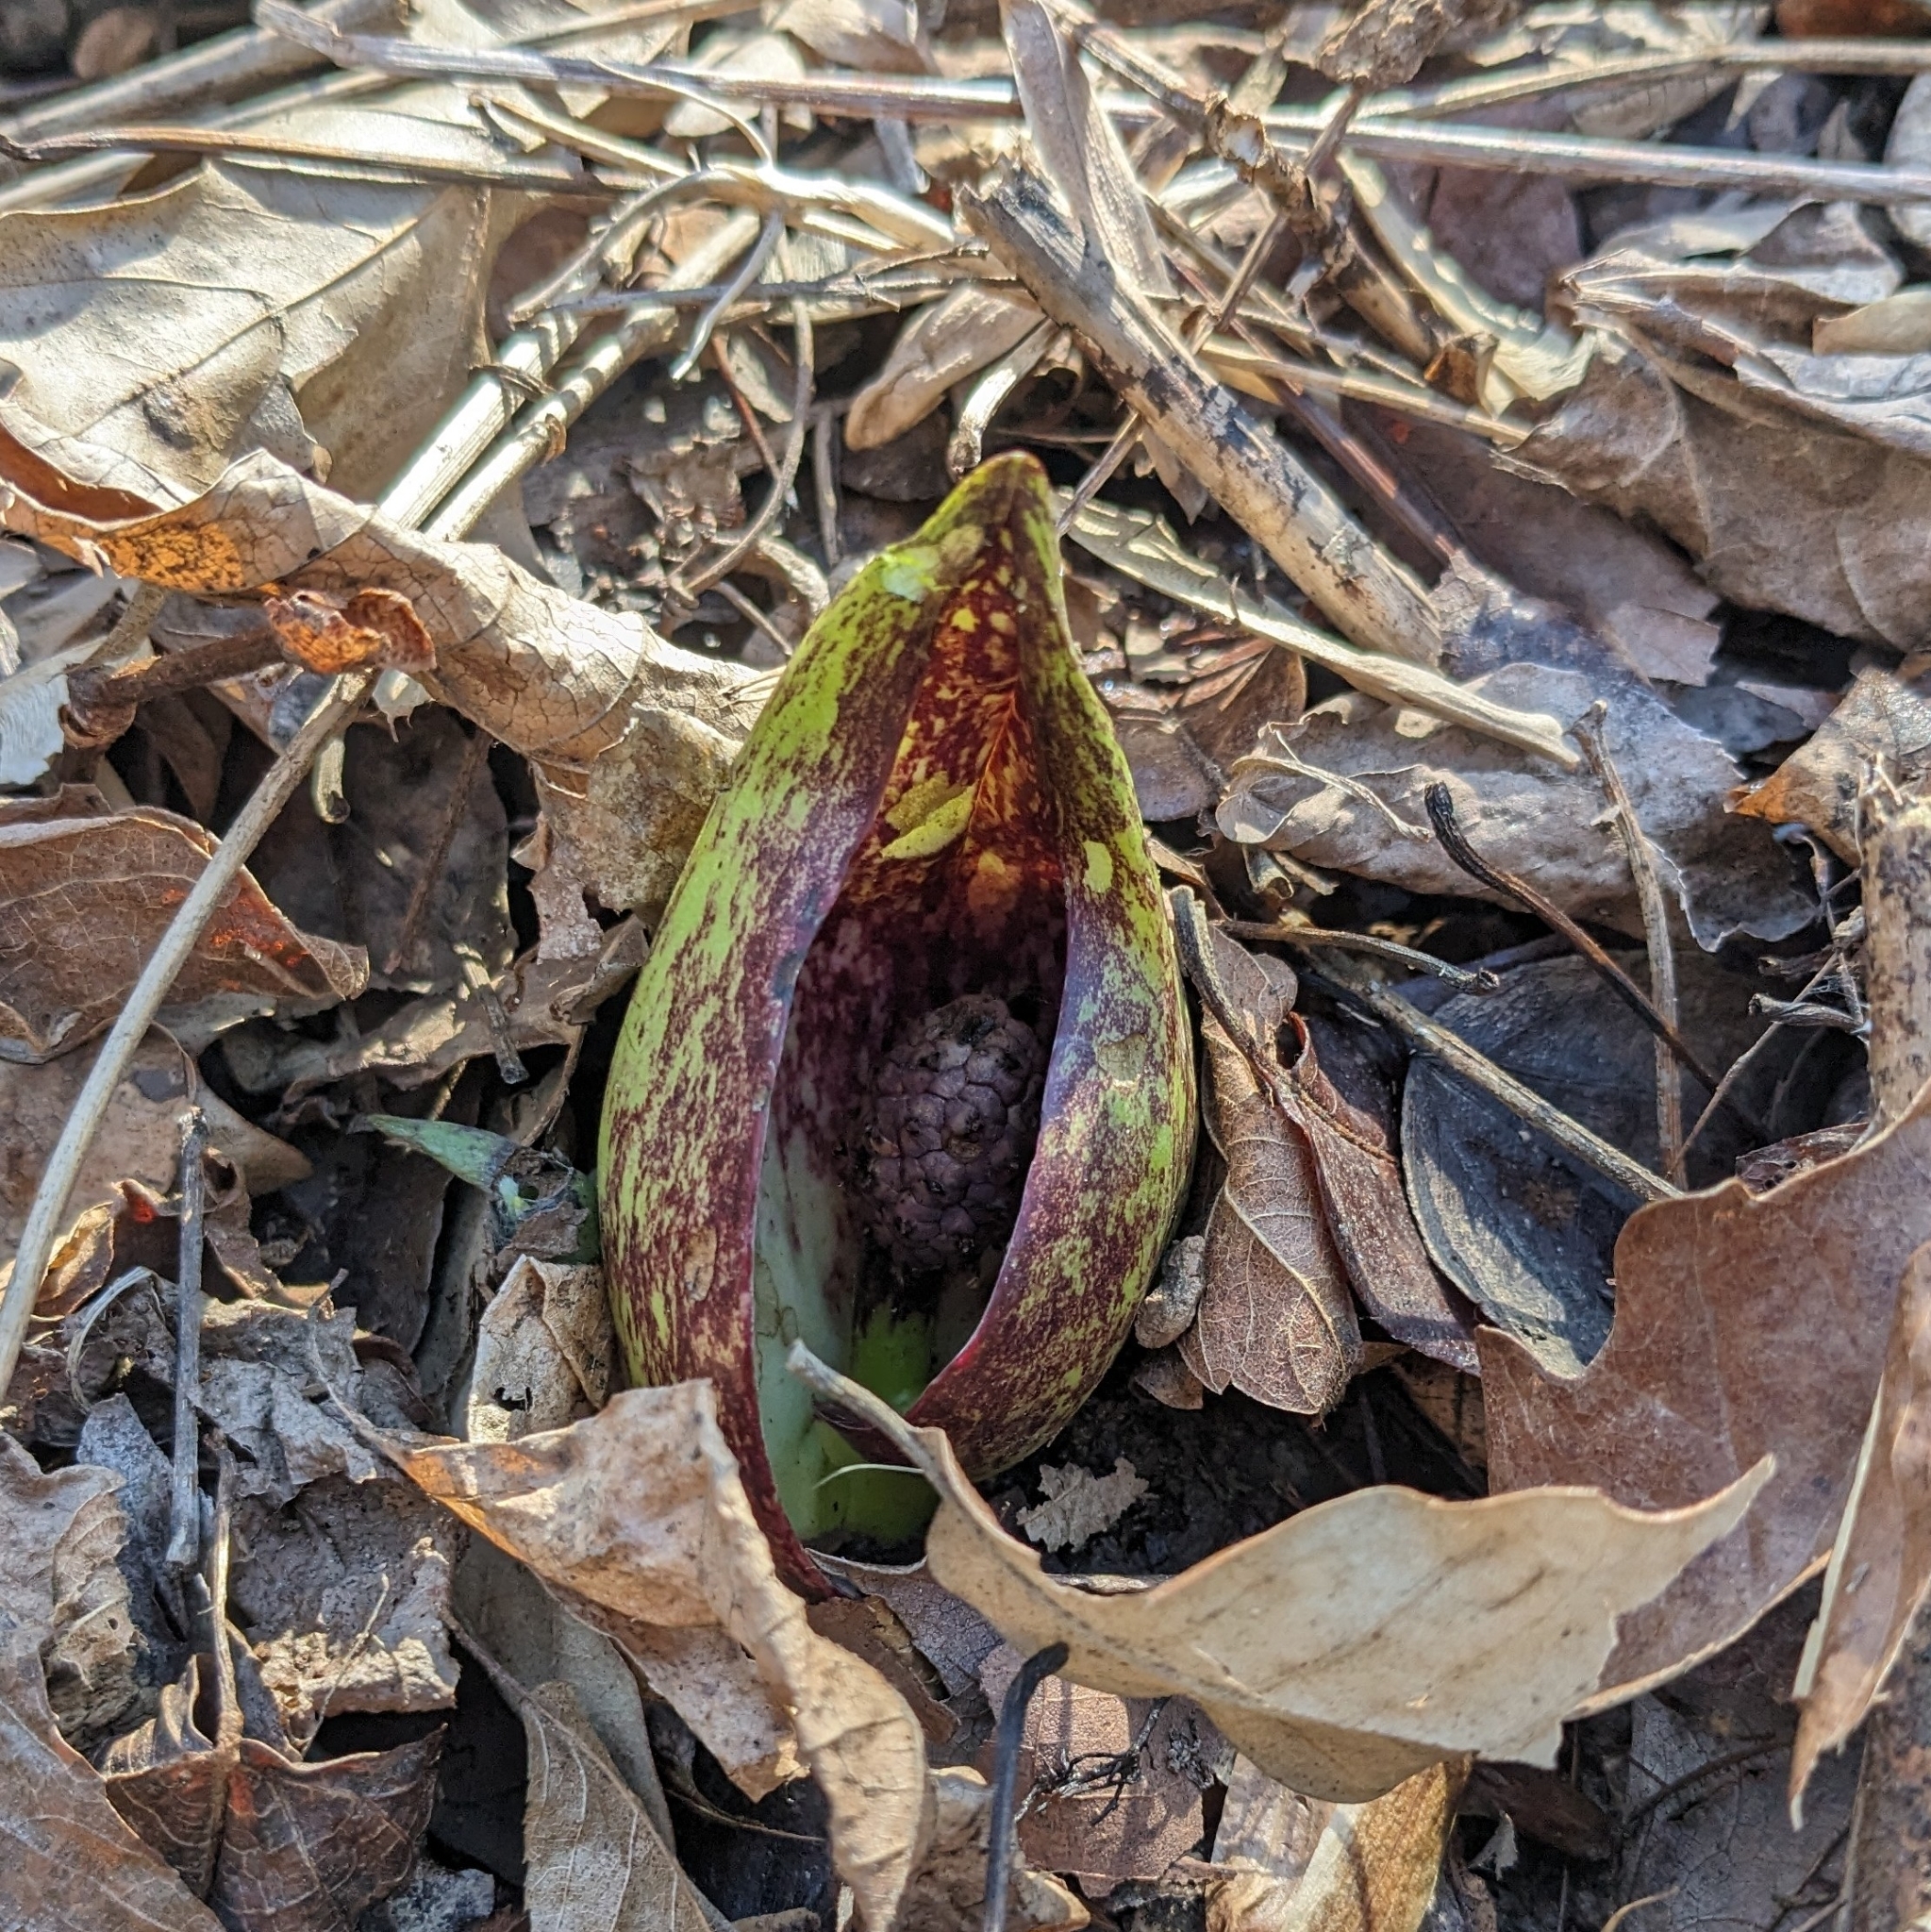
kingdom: Plantae
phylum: Tracheophyta
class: Liliopsida
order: Alismatales
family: Araceae
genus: Symplocarpus
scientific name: Symplocarpus foetidus
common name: Eastern skunk cabbage
